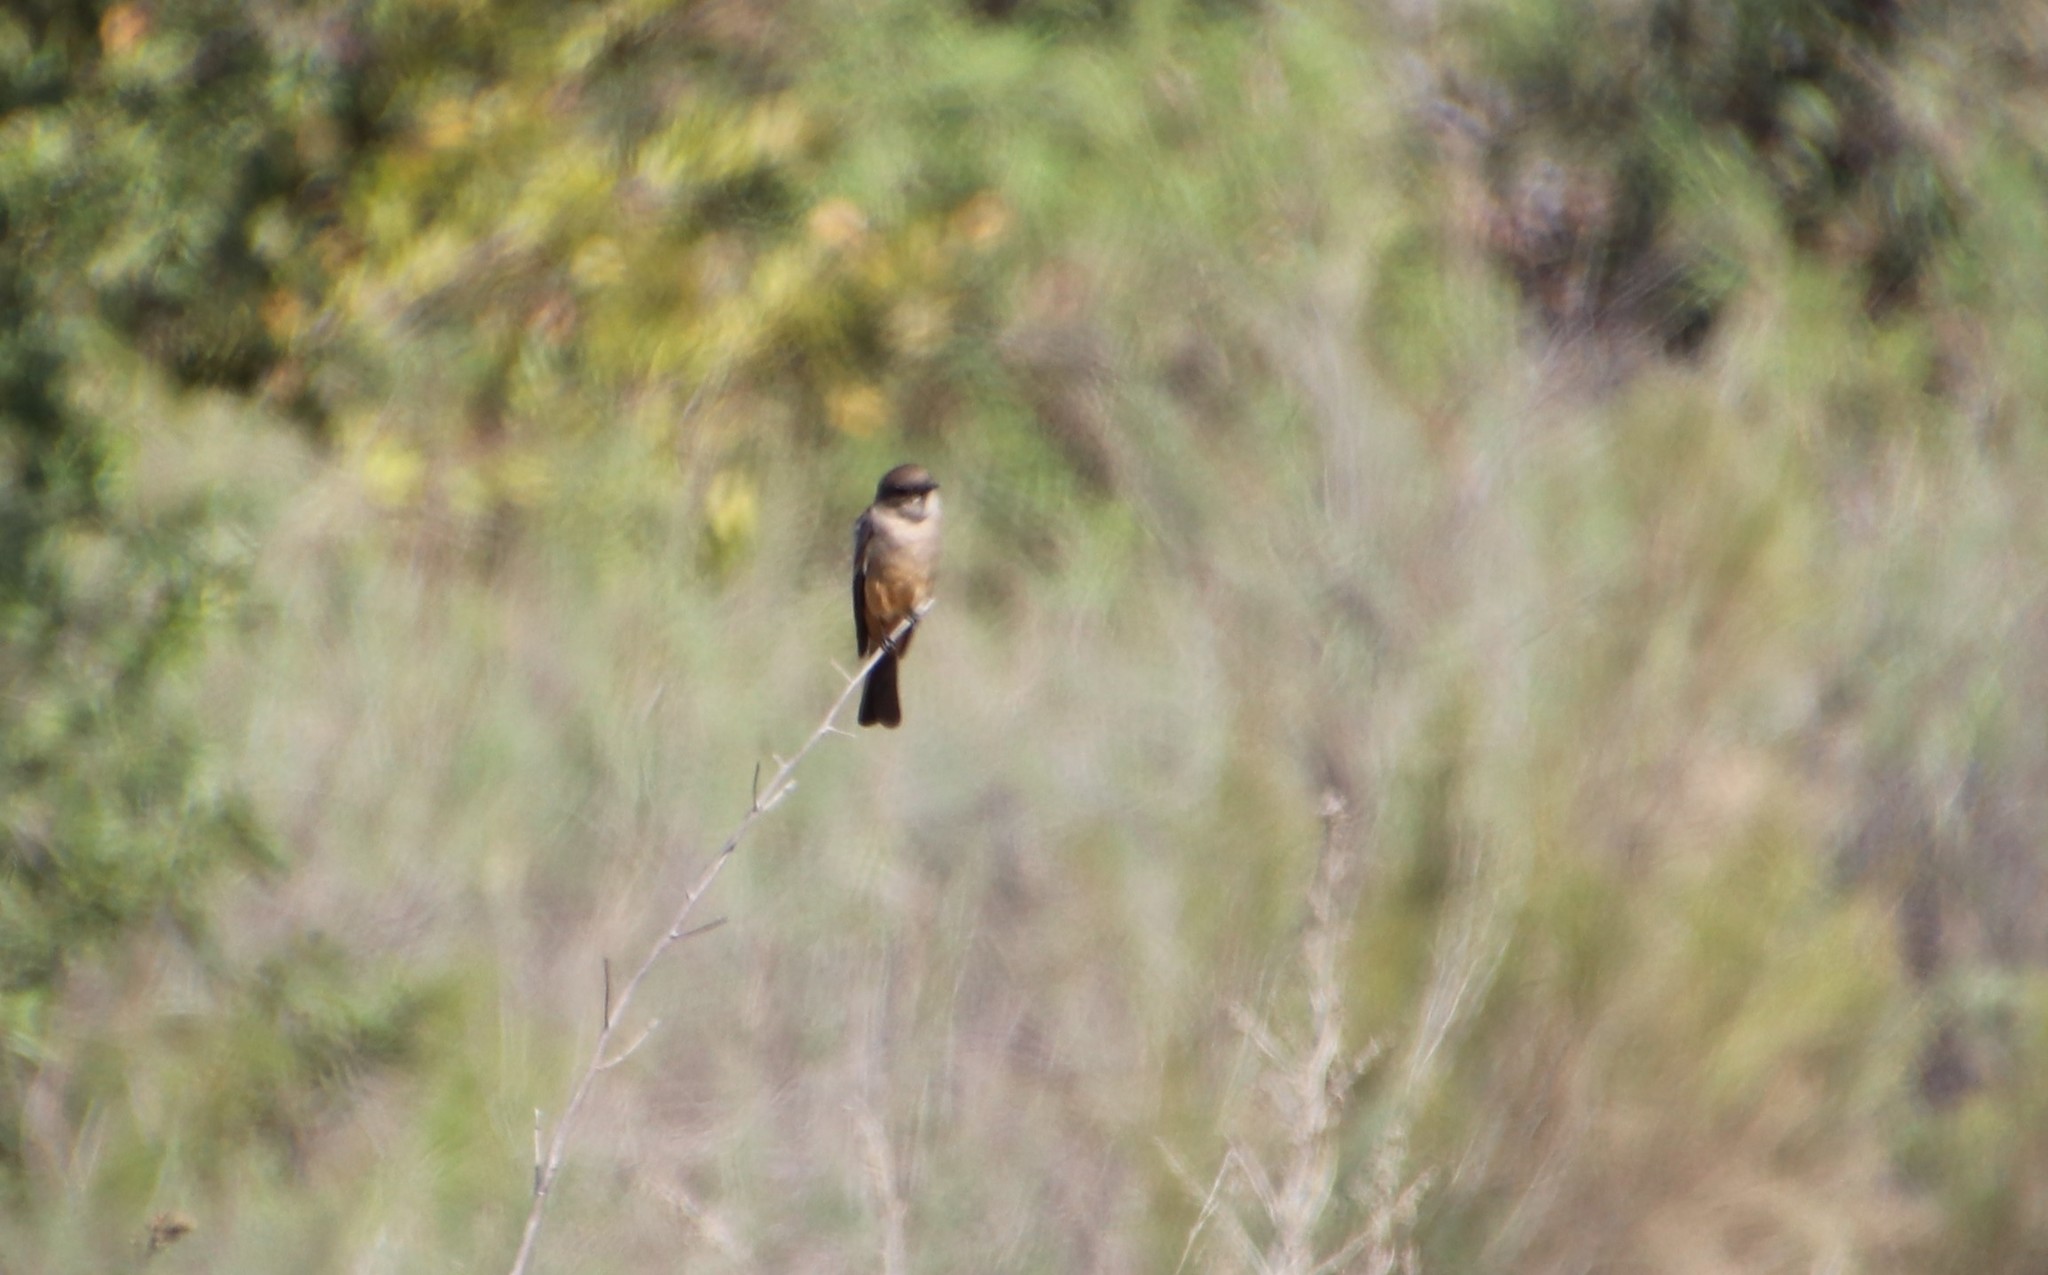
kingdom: Animalia
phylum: Chordata
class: Aves
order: Passeriformes
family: Tyrannidae
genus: Sayornis
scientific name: Sayornis saya
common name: Say's phoebe
